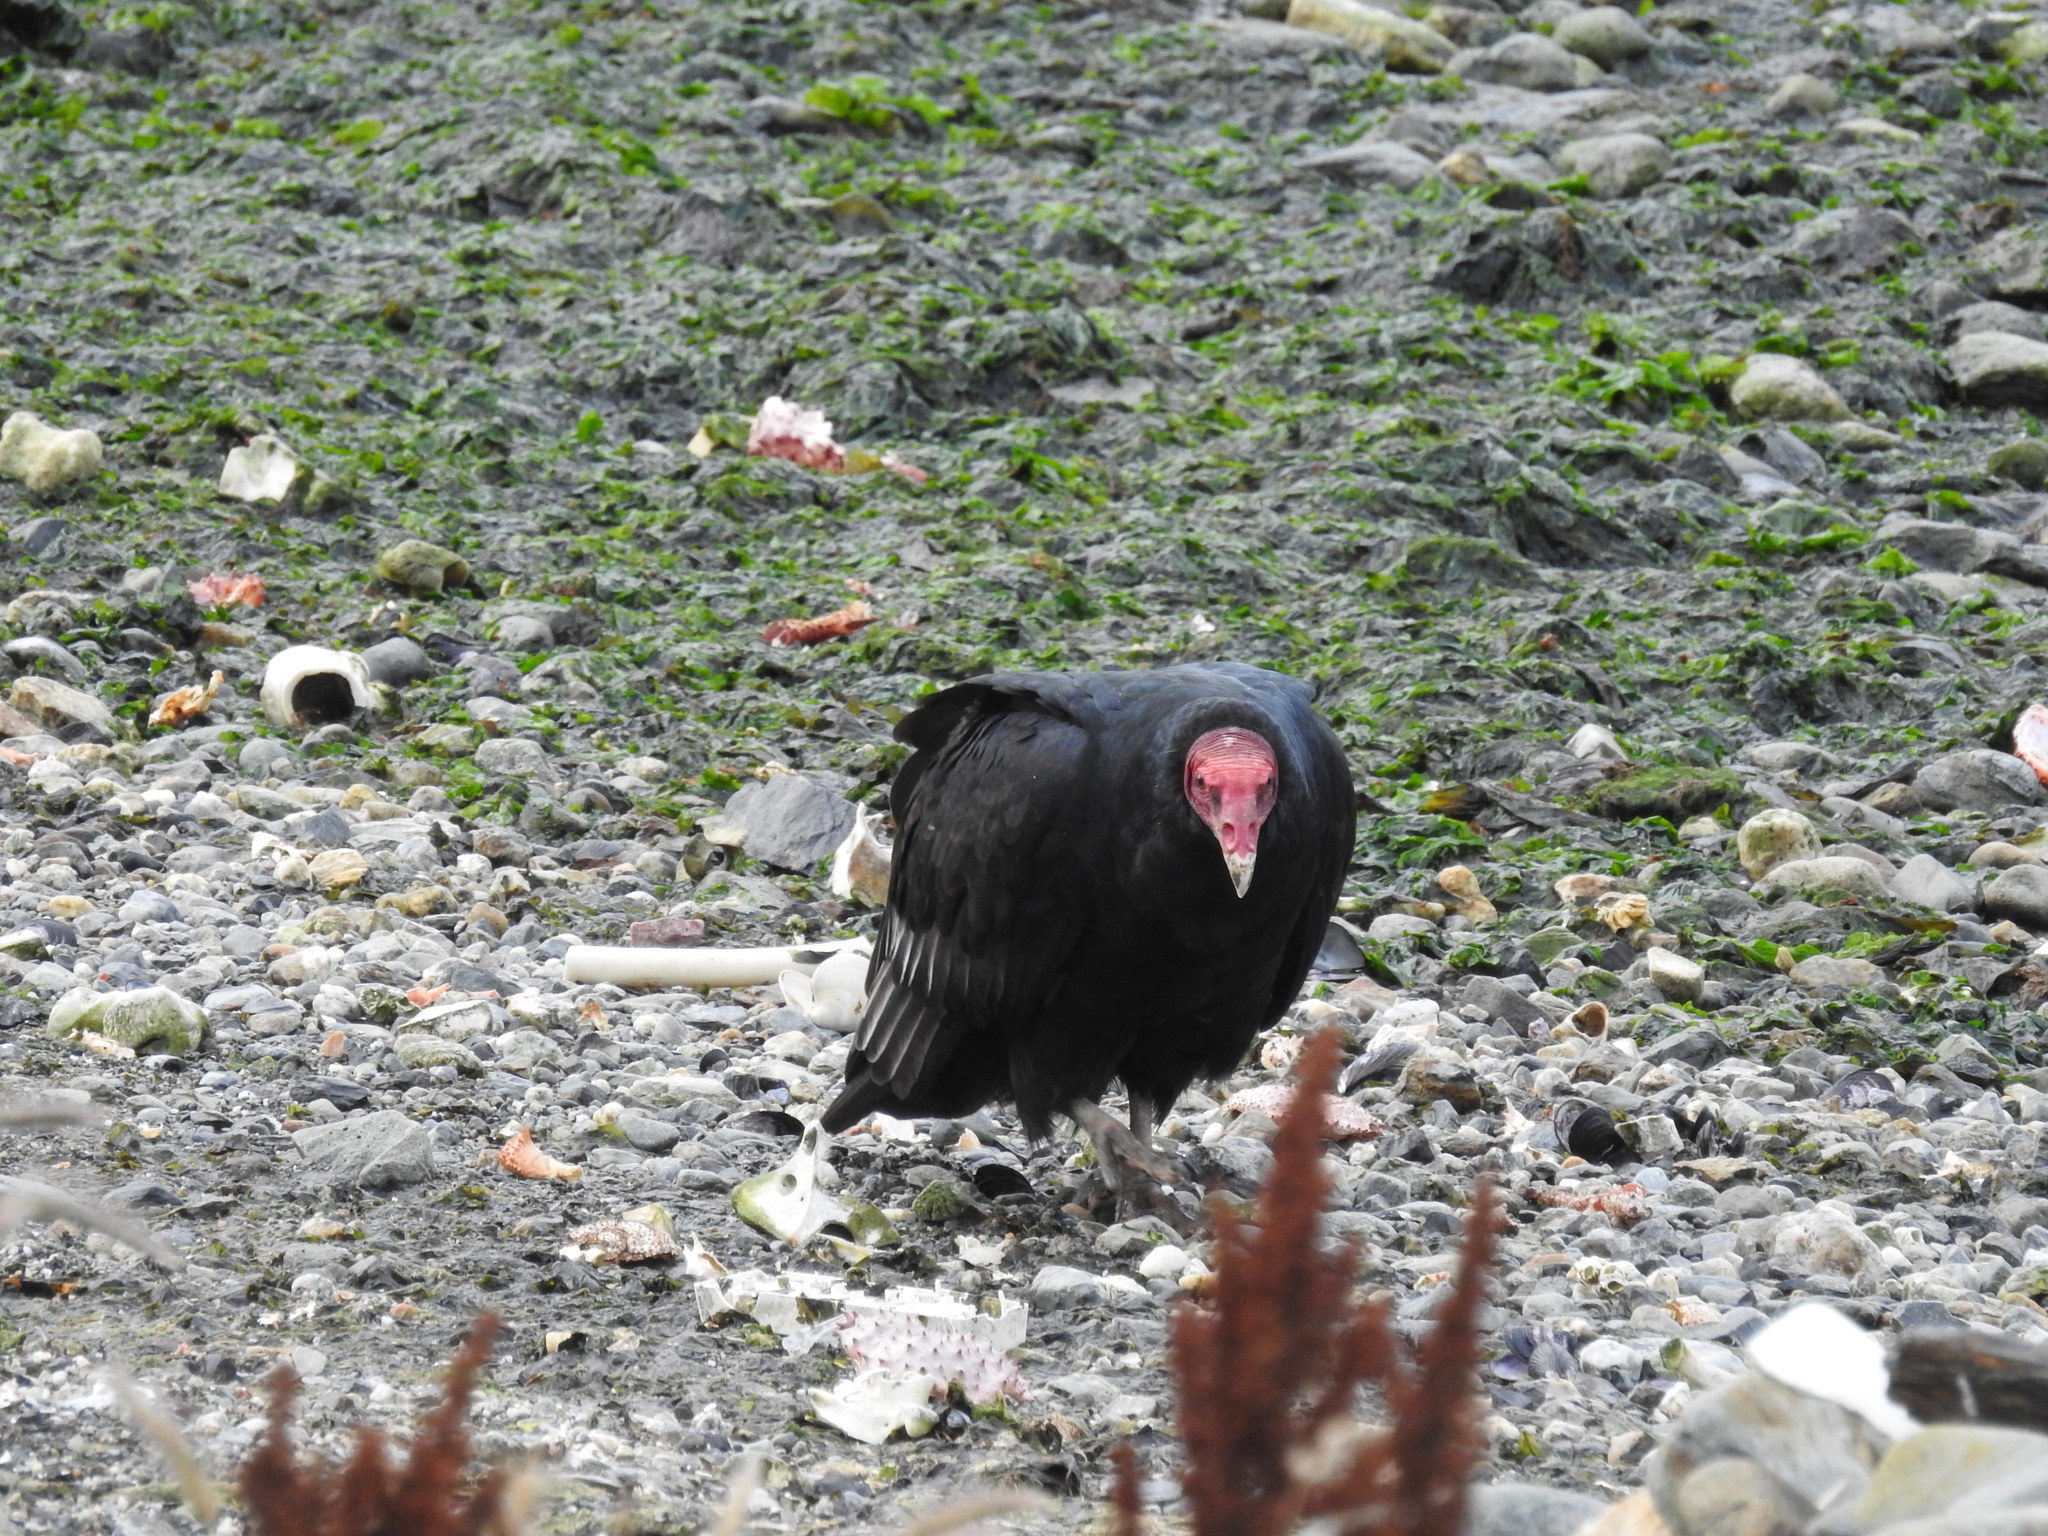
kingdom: Animalia
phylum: Chordata
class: Aves
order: Accipitriformes
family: Cathartidae
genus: Cathartes
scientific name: Cathartes aura
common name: Turkey vulture
